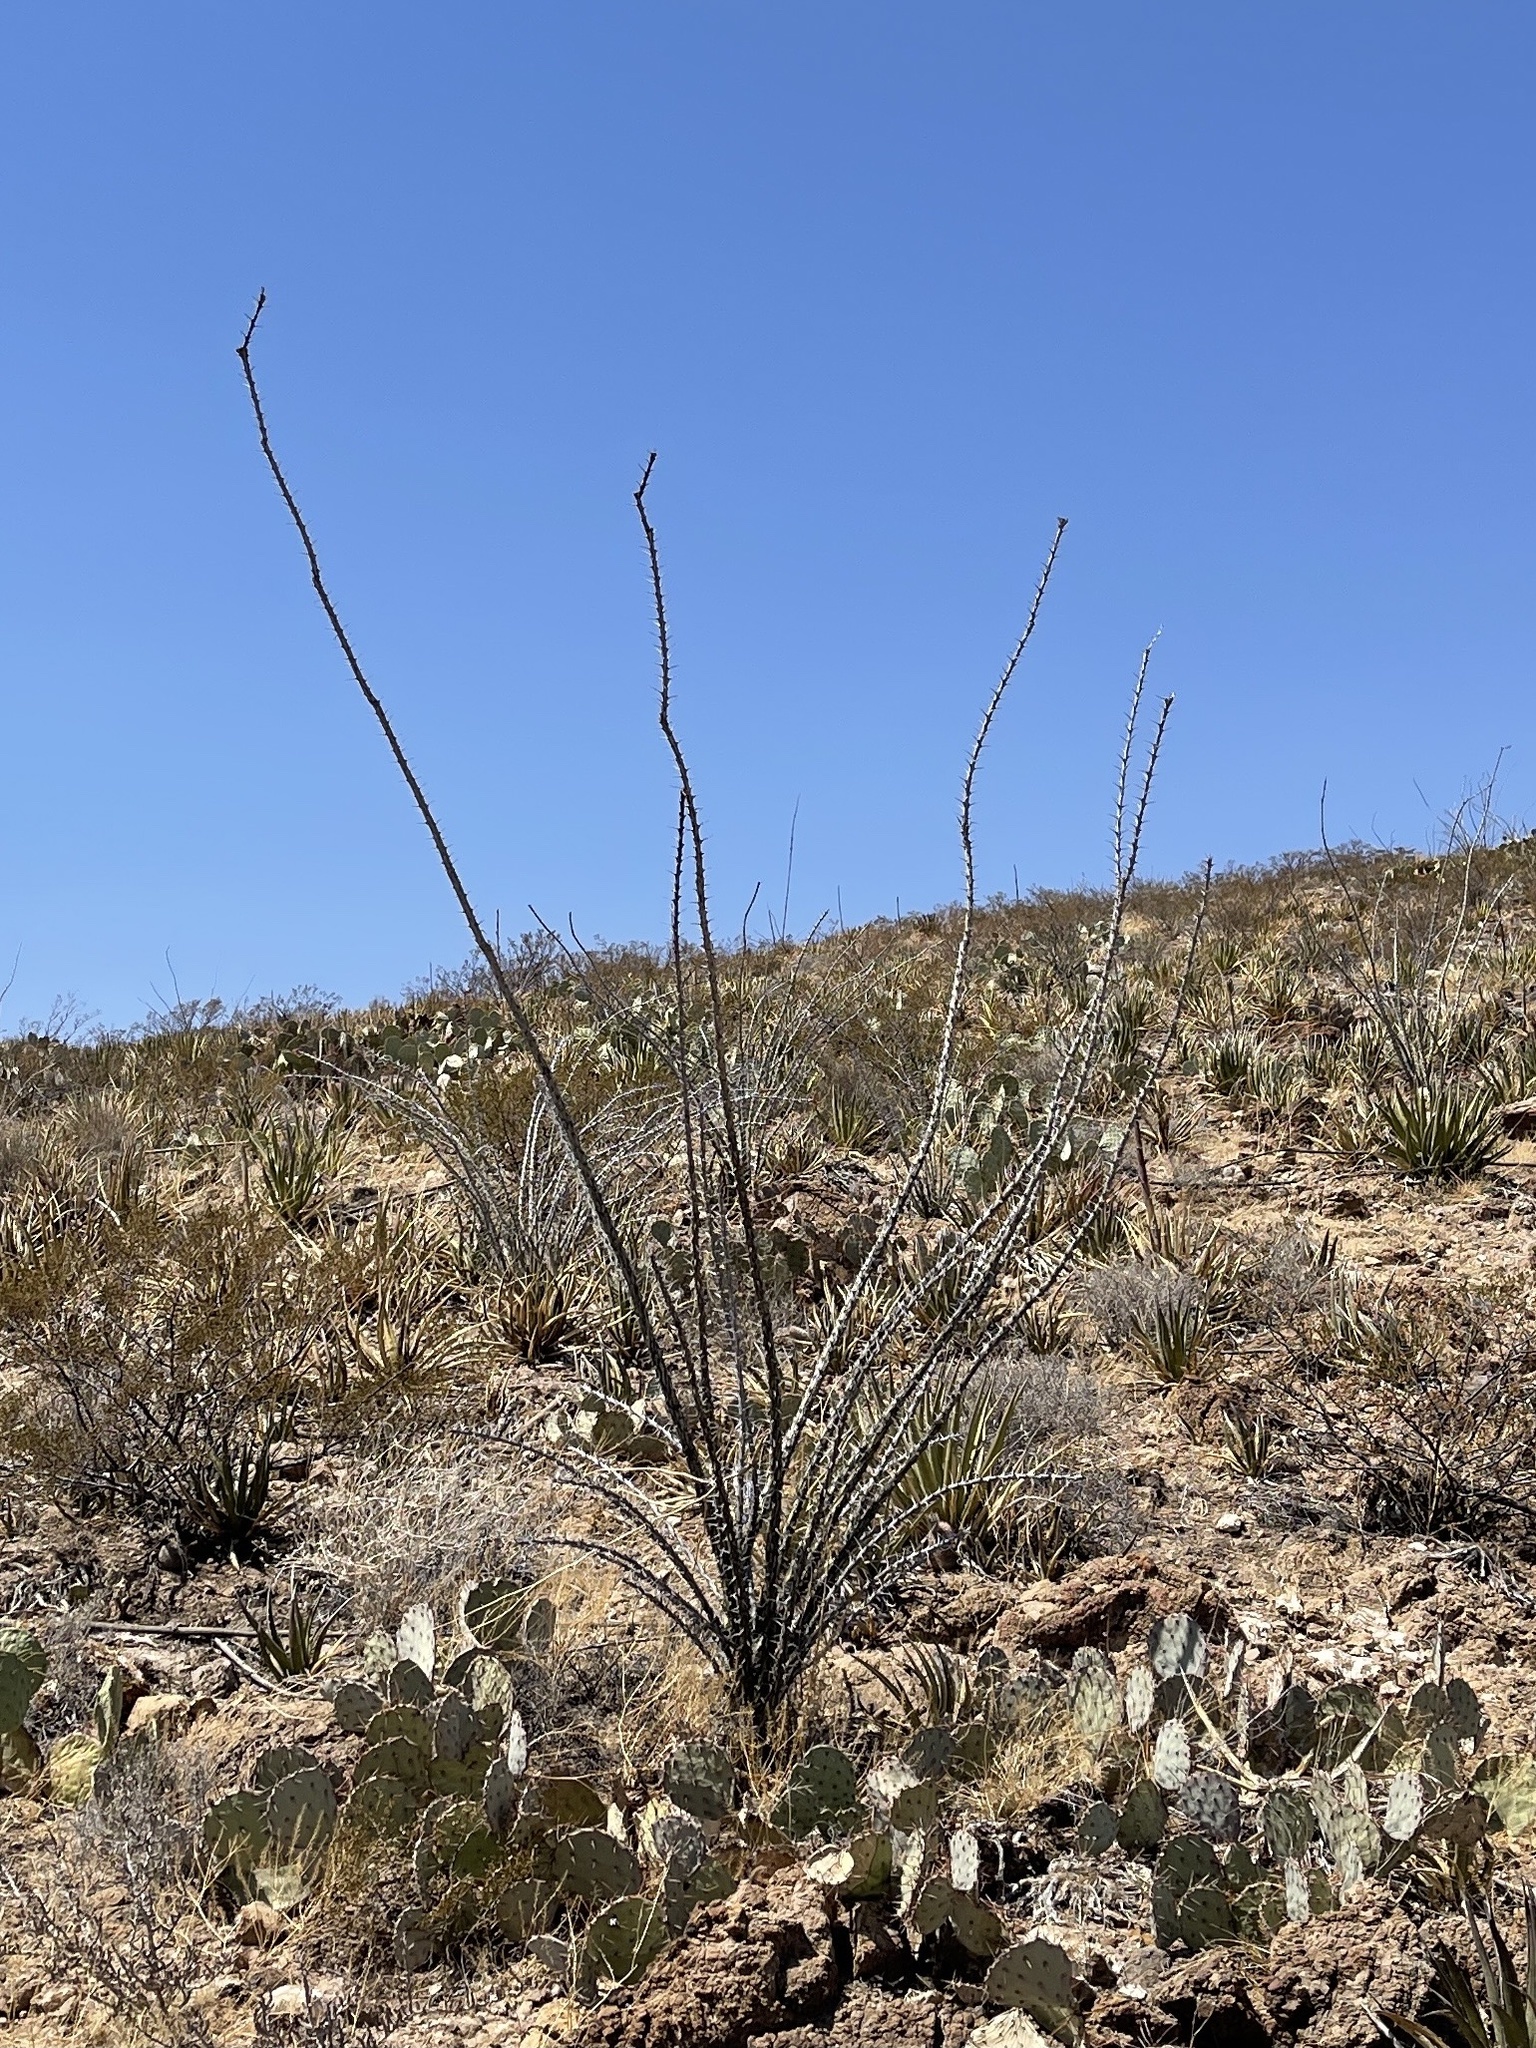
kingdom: Plantae
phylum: Tracheophyta
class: Magnoliopsida
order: Ericales
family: Fouquieriaceae
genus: Fouquieria
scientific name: Fouquieria splendens
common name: Vine-cactus
